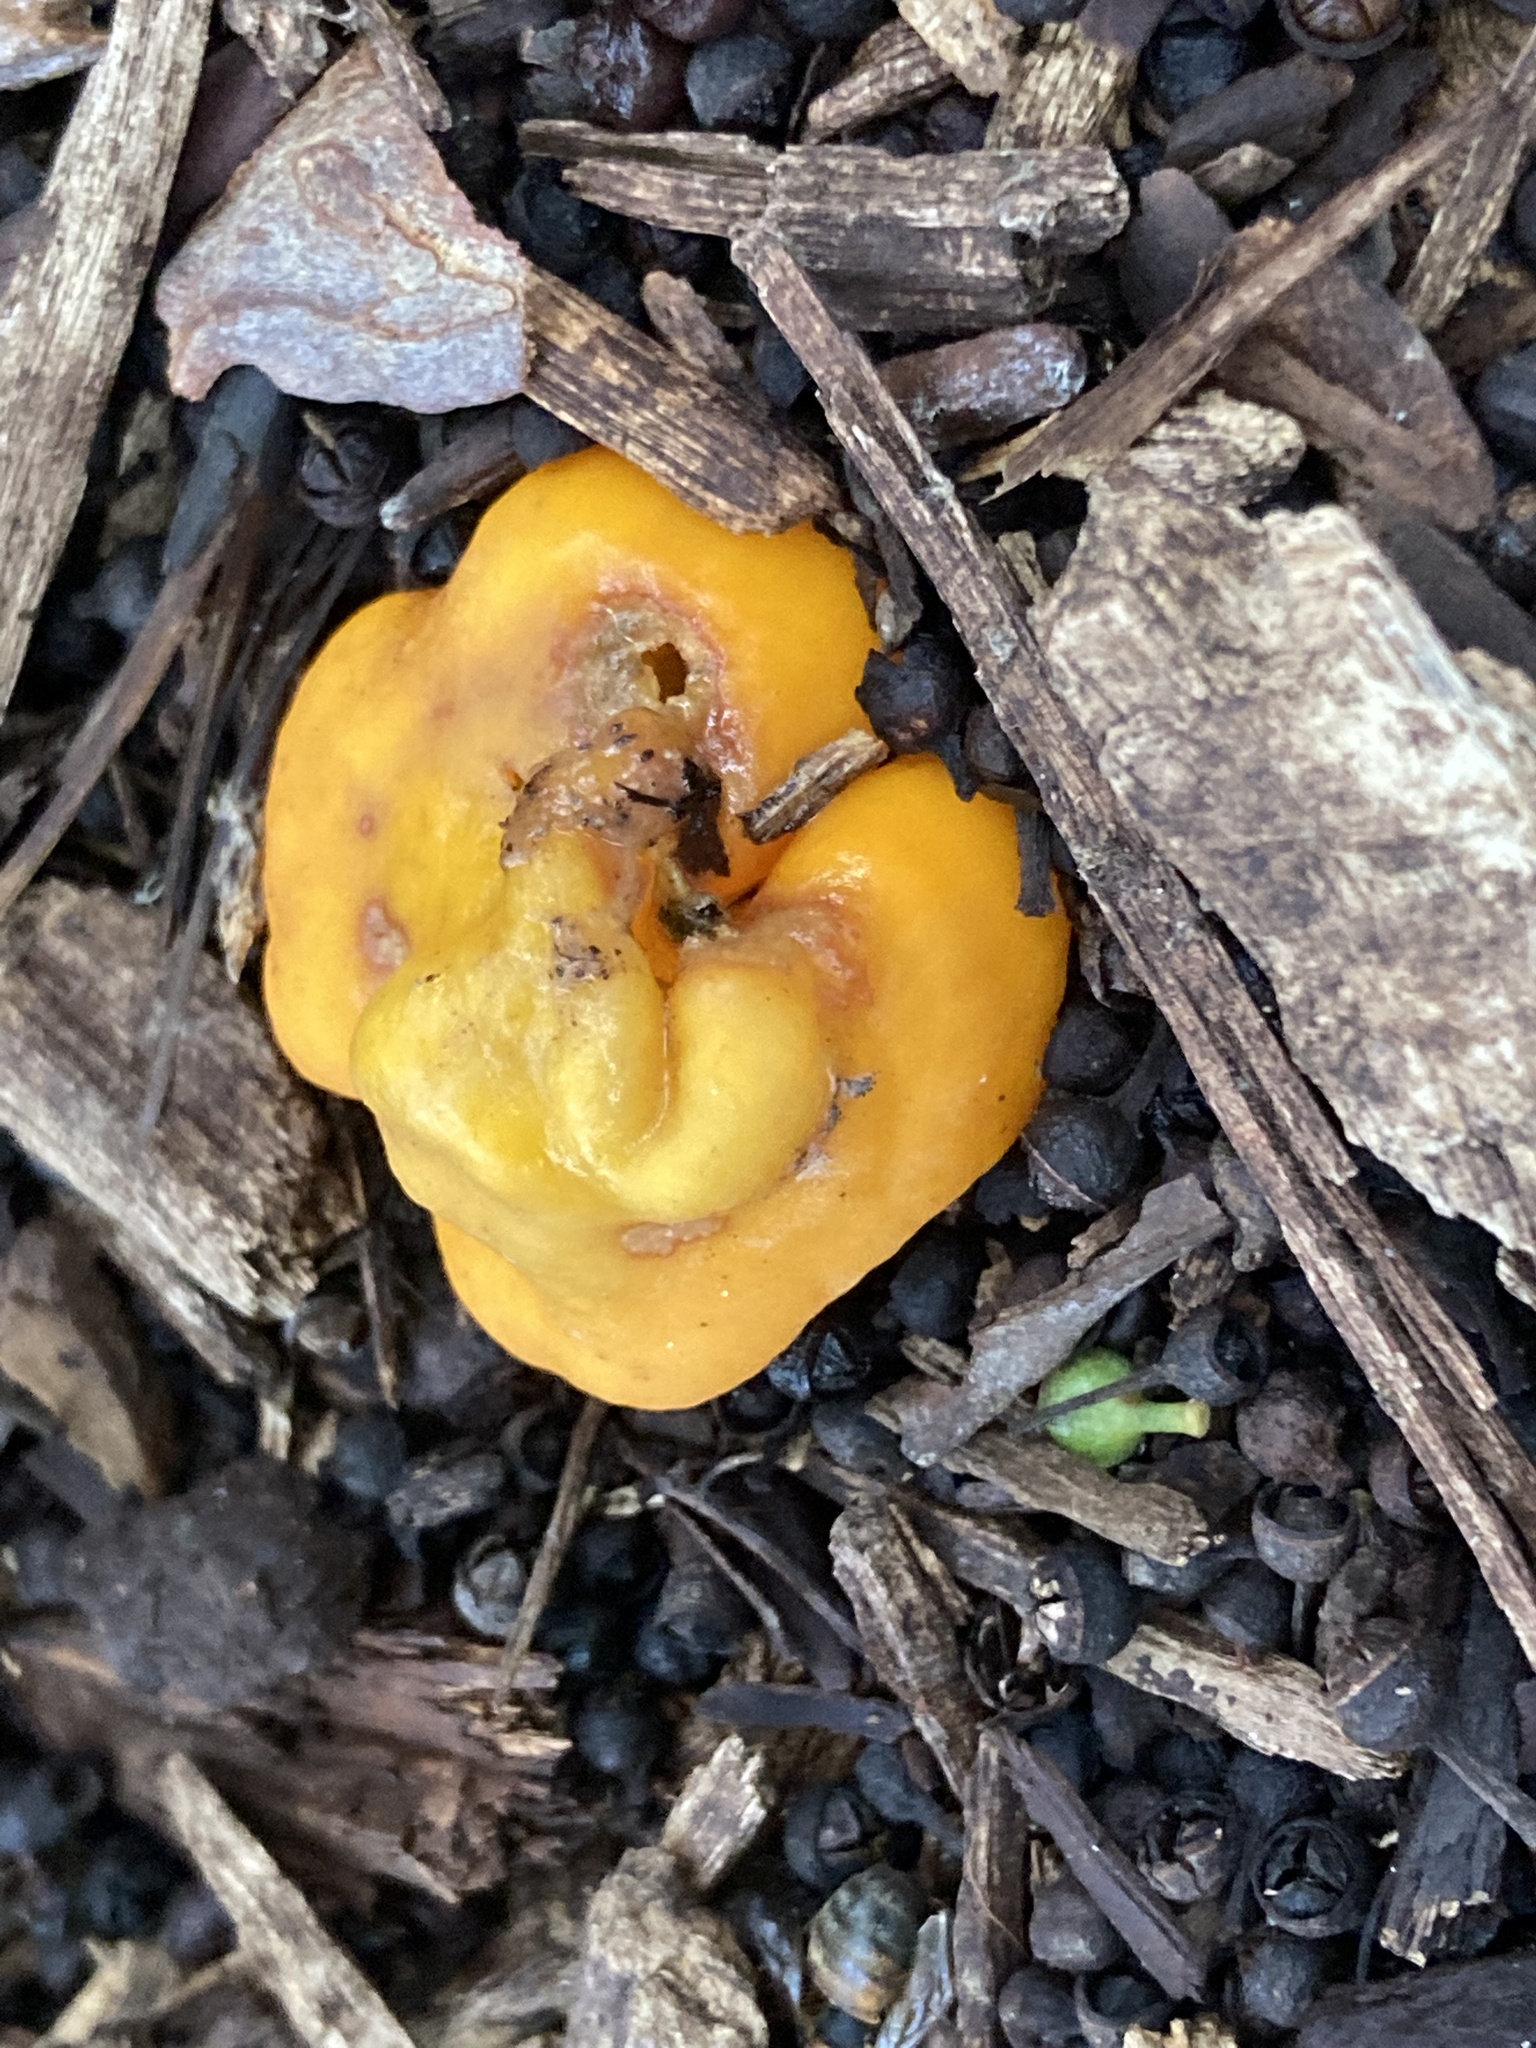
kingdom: Fungi
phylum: Ascomycota
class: Pezizomycetes
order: Pezizales
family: Glaziellaceae
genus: Glaziella
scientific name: Glaziella aurantiaca
